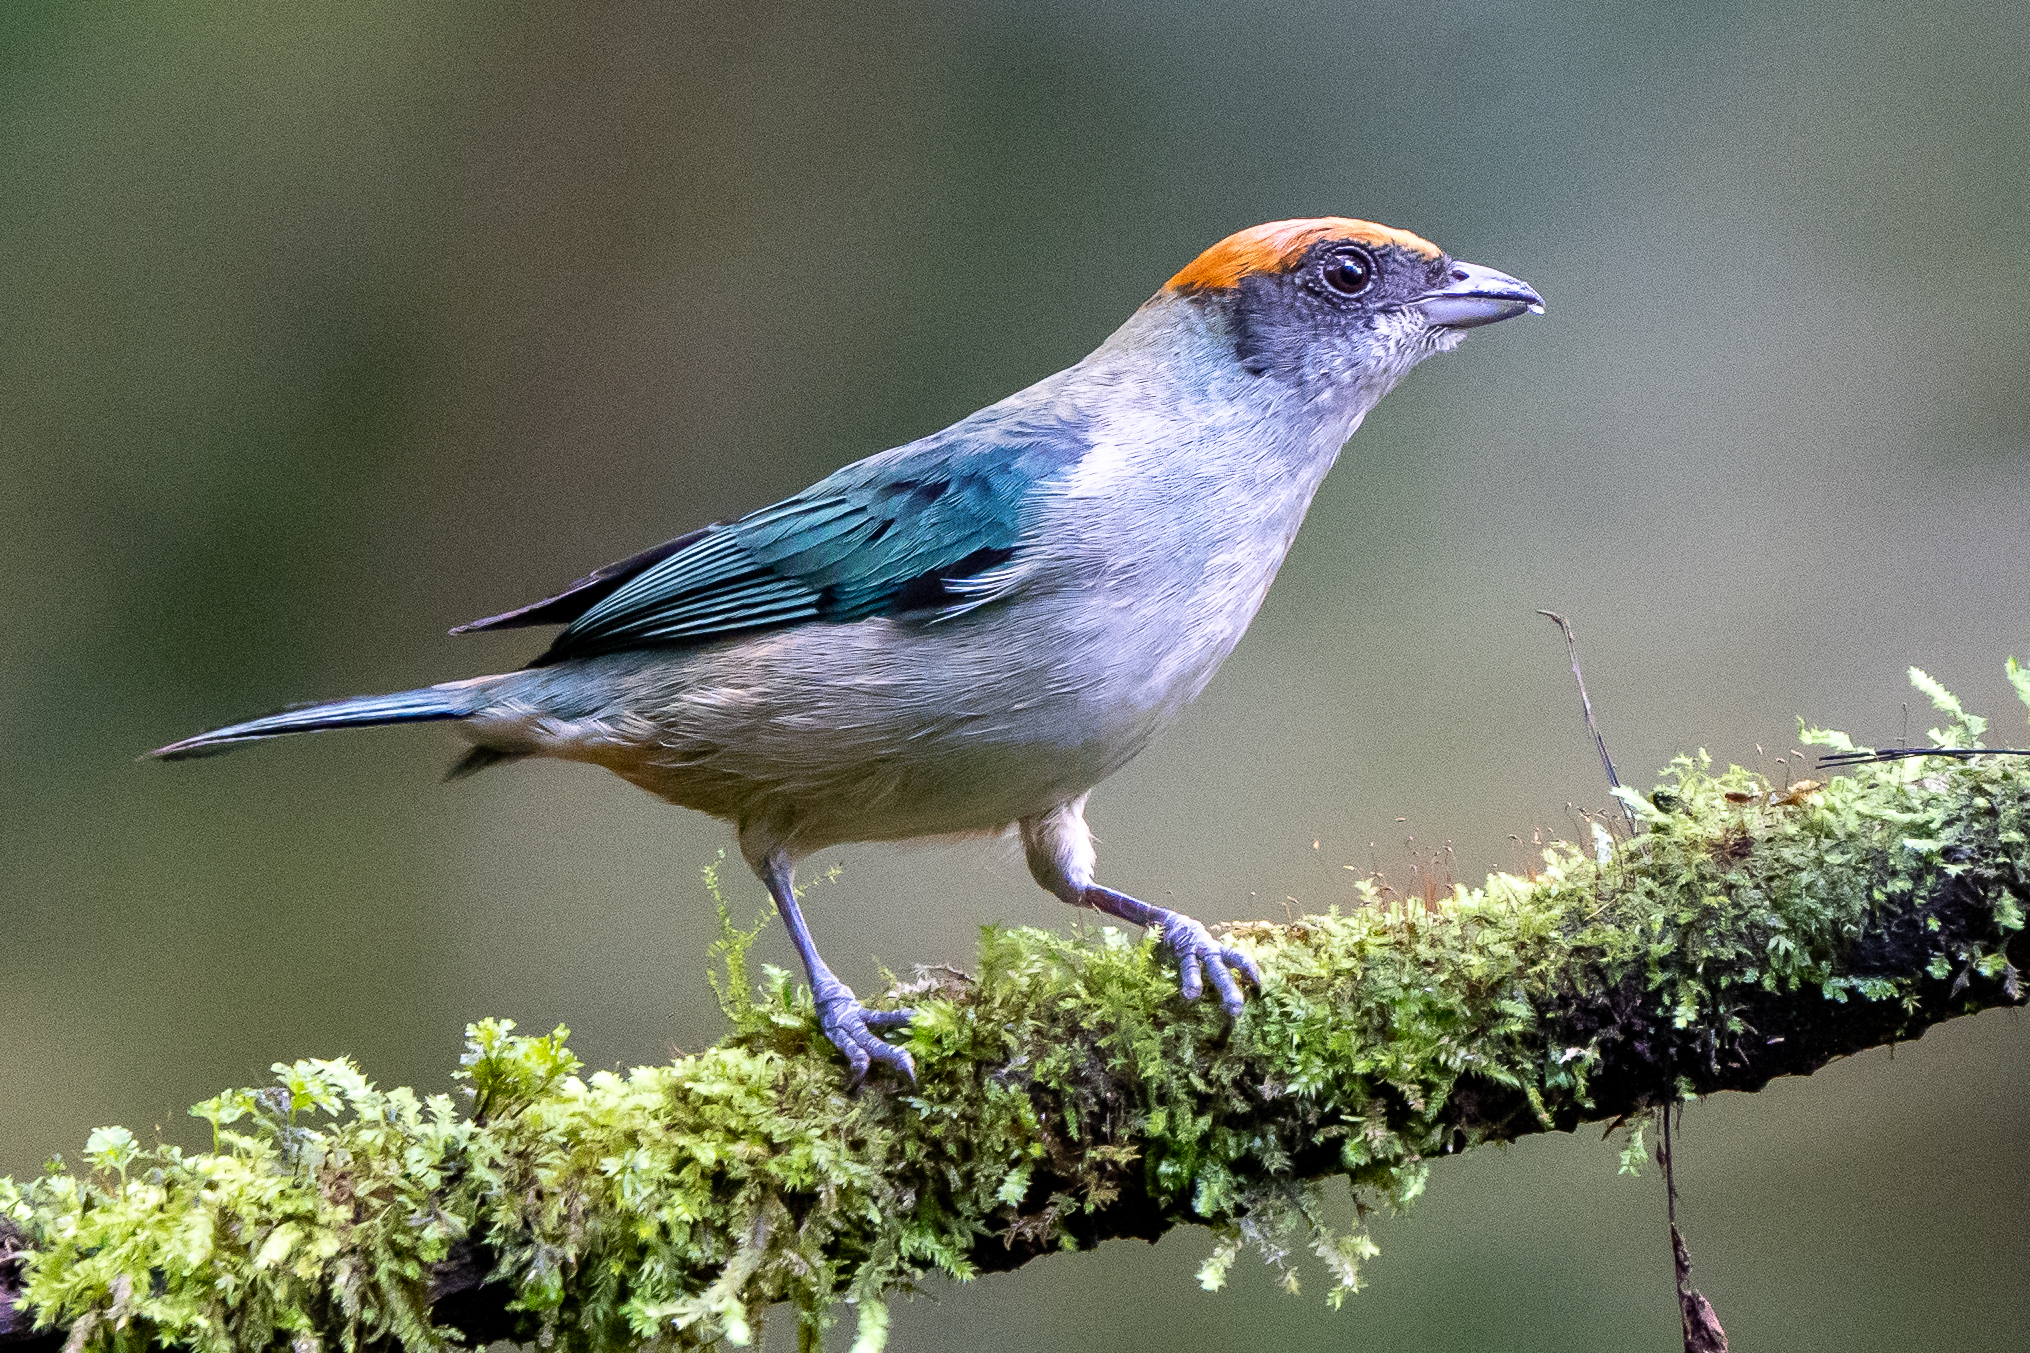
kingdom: Animalia
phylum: Chordata
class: Aves
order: Passeriformes
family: Thraupidae
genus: Stilpnia
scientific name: Stilpnia vitriolina
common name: Scrub tanager
